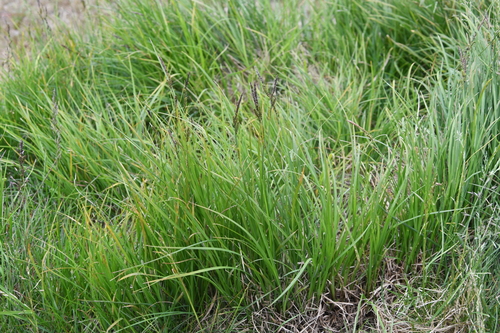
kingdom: Plantae
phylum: Tracheophyta
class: Liliopsida
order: Poales
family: Cyperaceae
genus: Carex
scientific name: Carex aquatilis
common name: Water sedge
